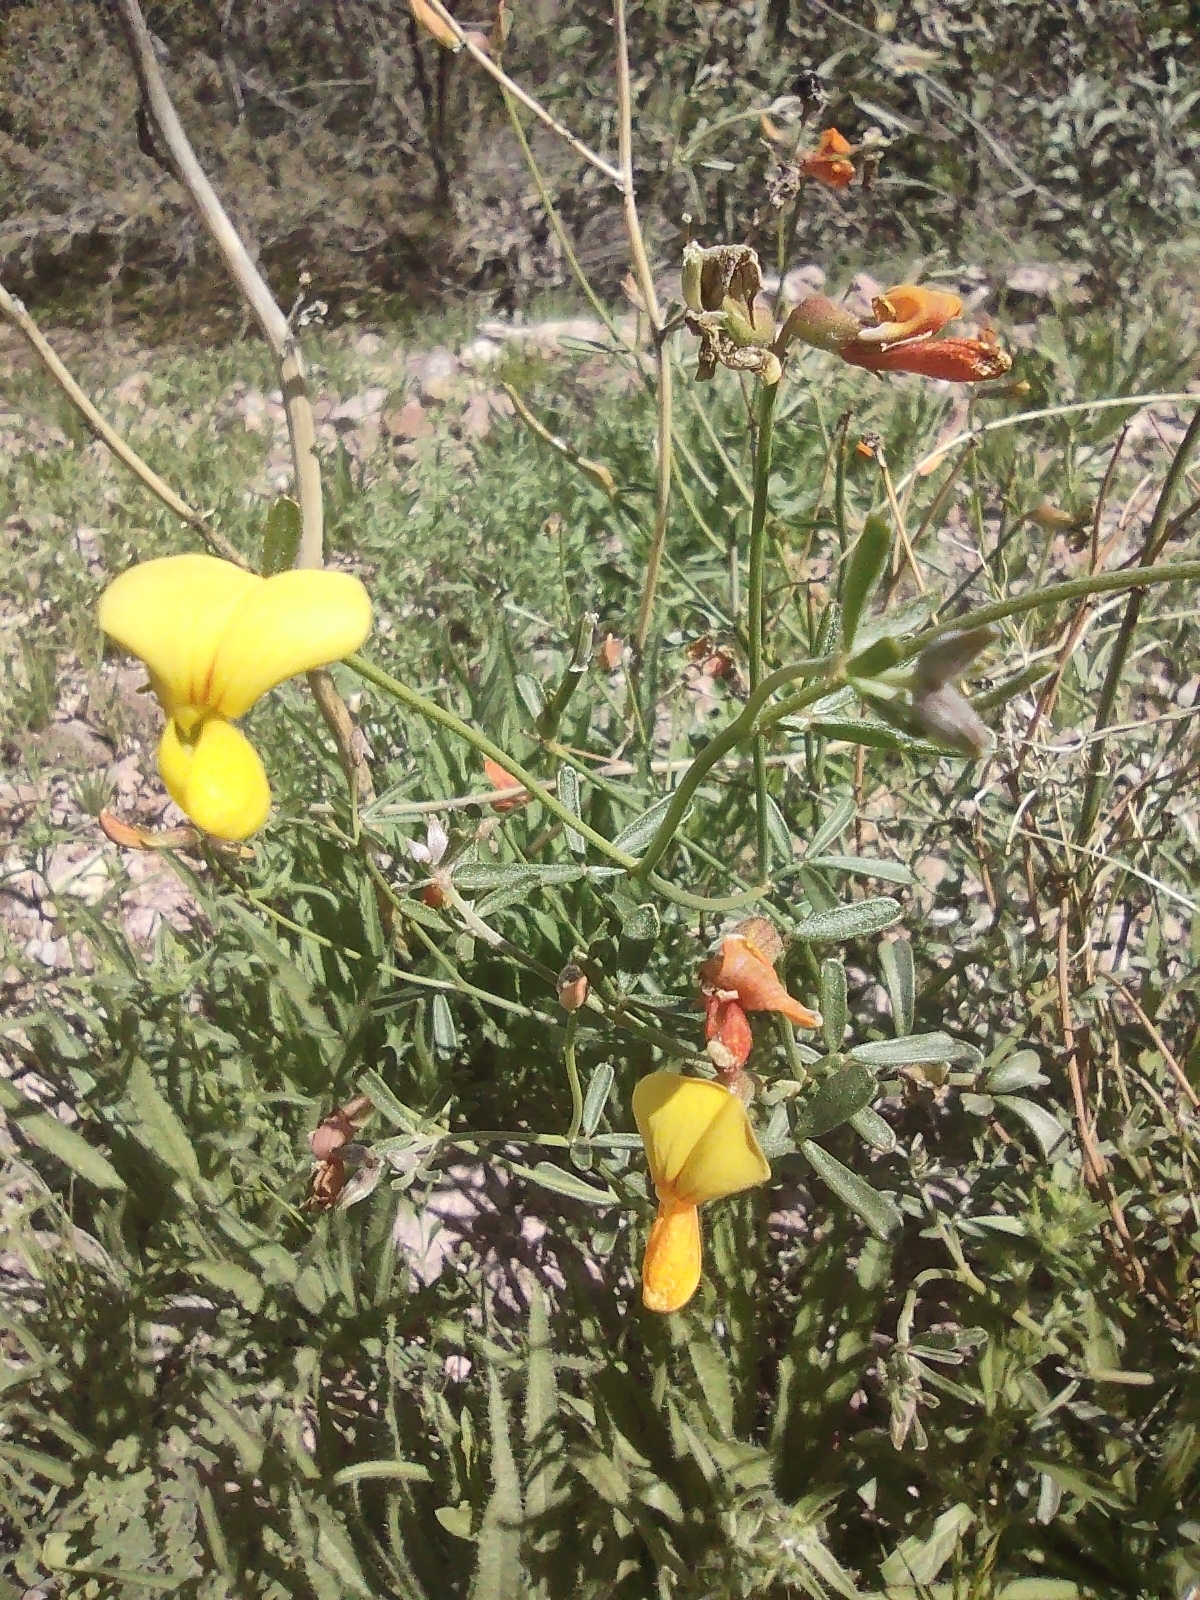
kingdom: Plantae
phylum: Tracheophyta
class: Magnoliopsida
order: Fabales
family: Fabaceae
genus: Acmispon
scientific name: Acmispon rigidus
